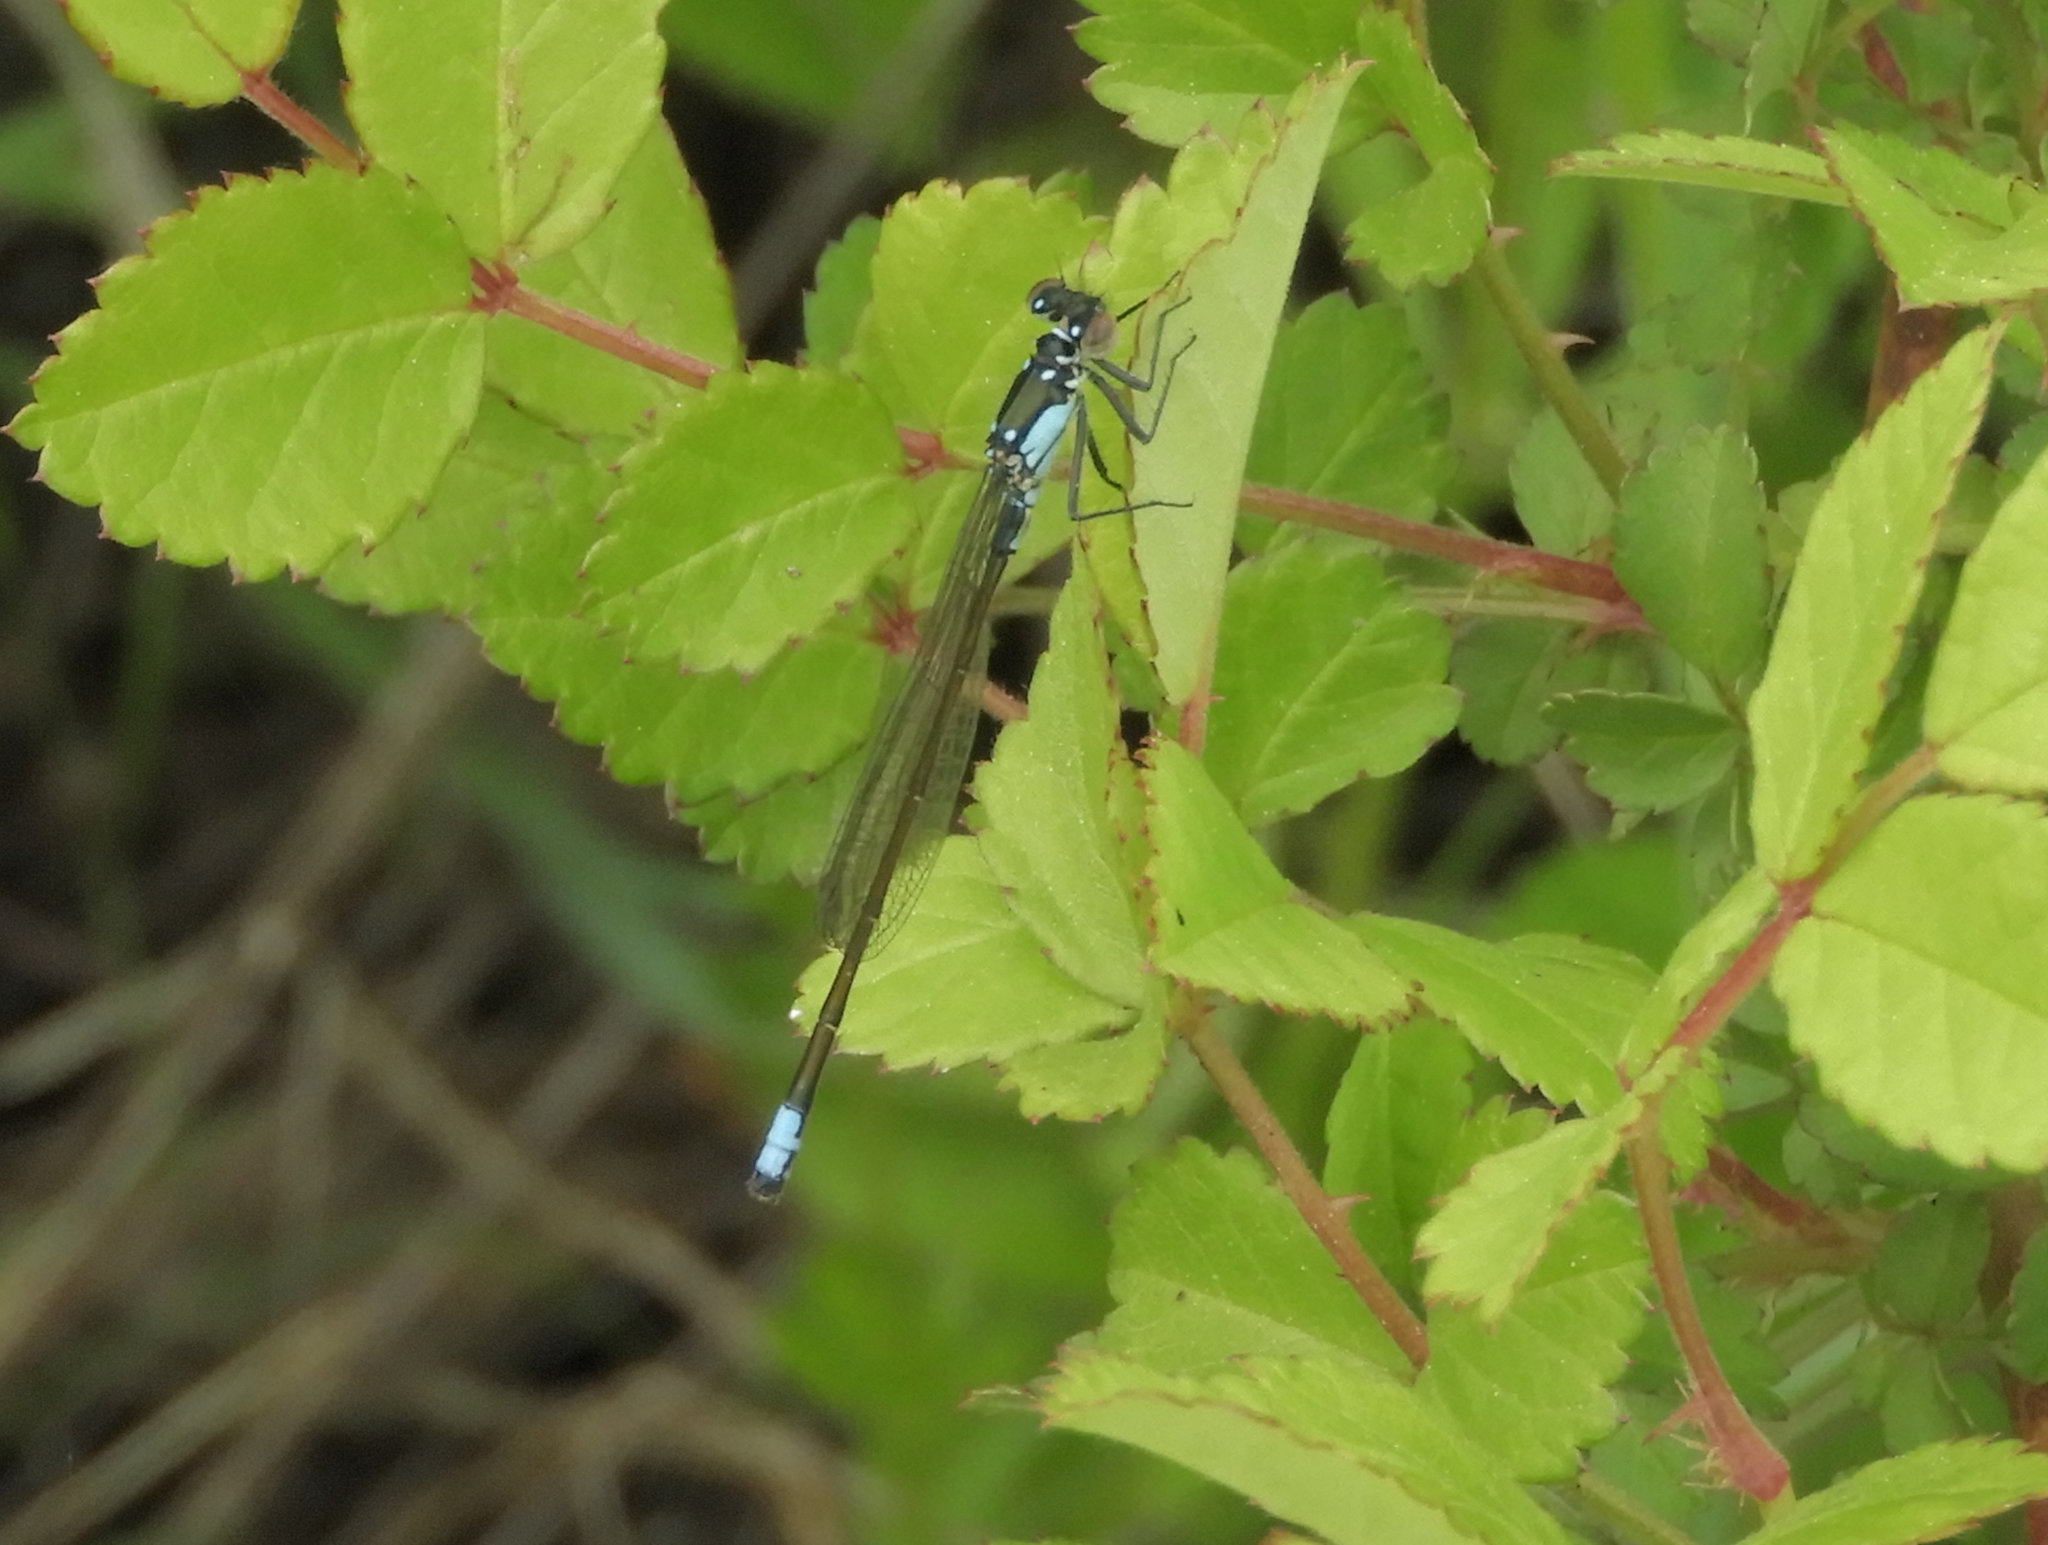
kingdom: Animalia
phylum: Arthropoda
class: Insecta
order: Odonata
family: Coenagrionidae
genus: Ischnura
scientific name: Ischnura cervula
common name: Pacific forktail
